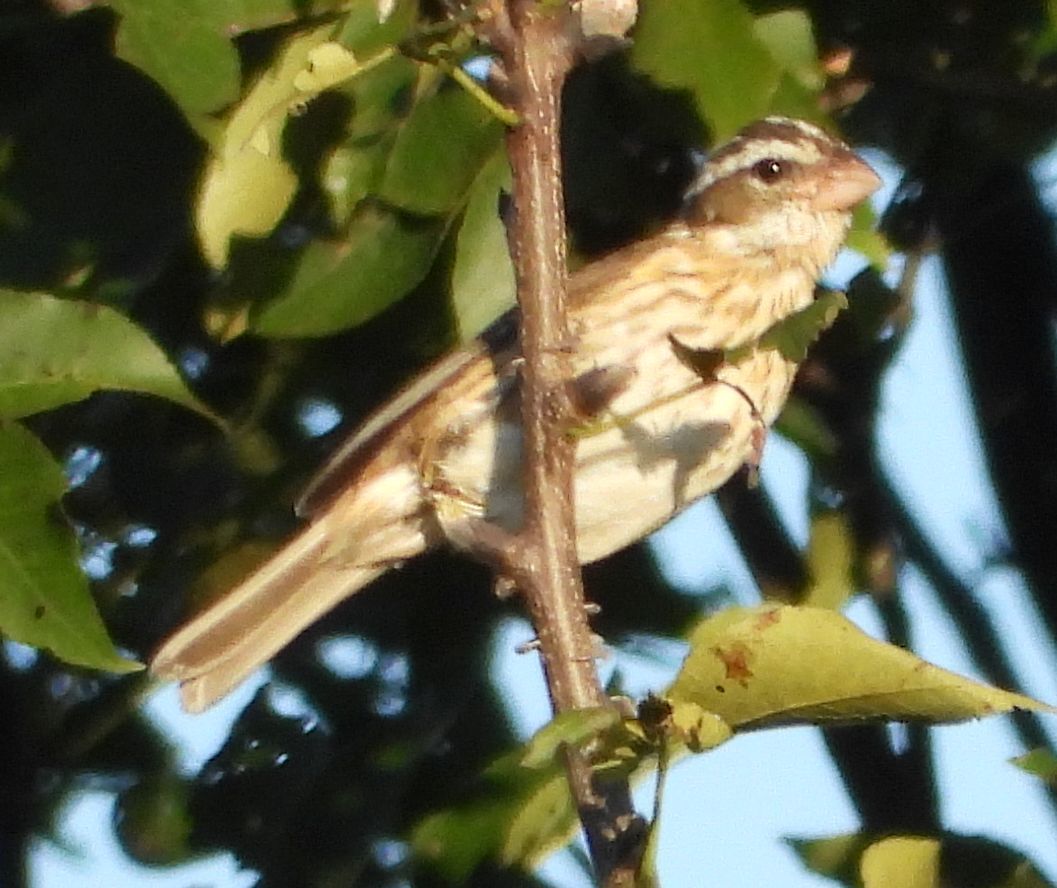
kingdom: Animalia
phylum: Chordata
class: Aves
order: Passeriformes
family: Cardinalidae
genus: Pheucticus
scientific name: Pheucticus ludovicianus
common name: Rose-breasted grosbeak
